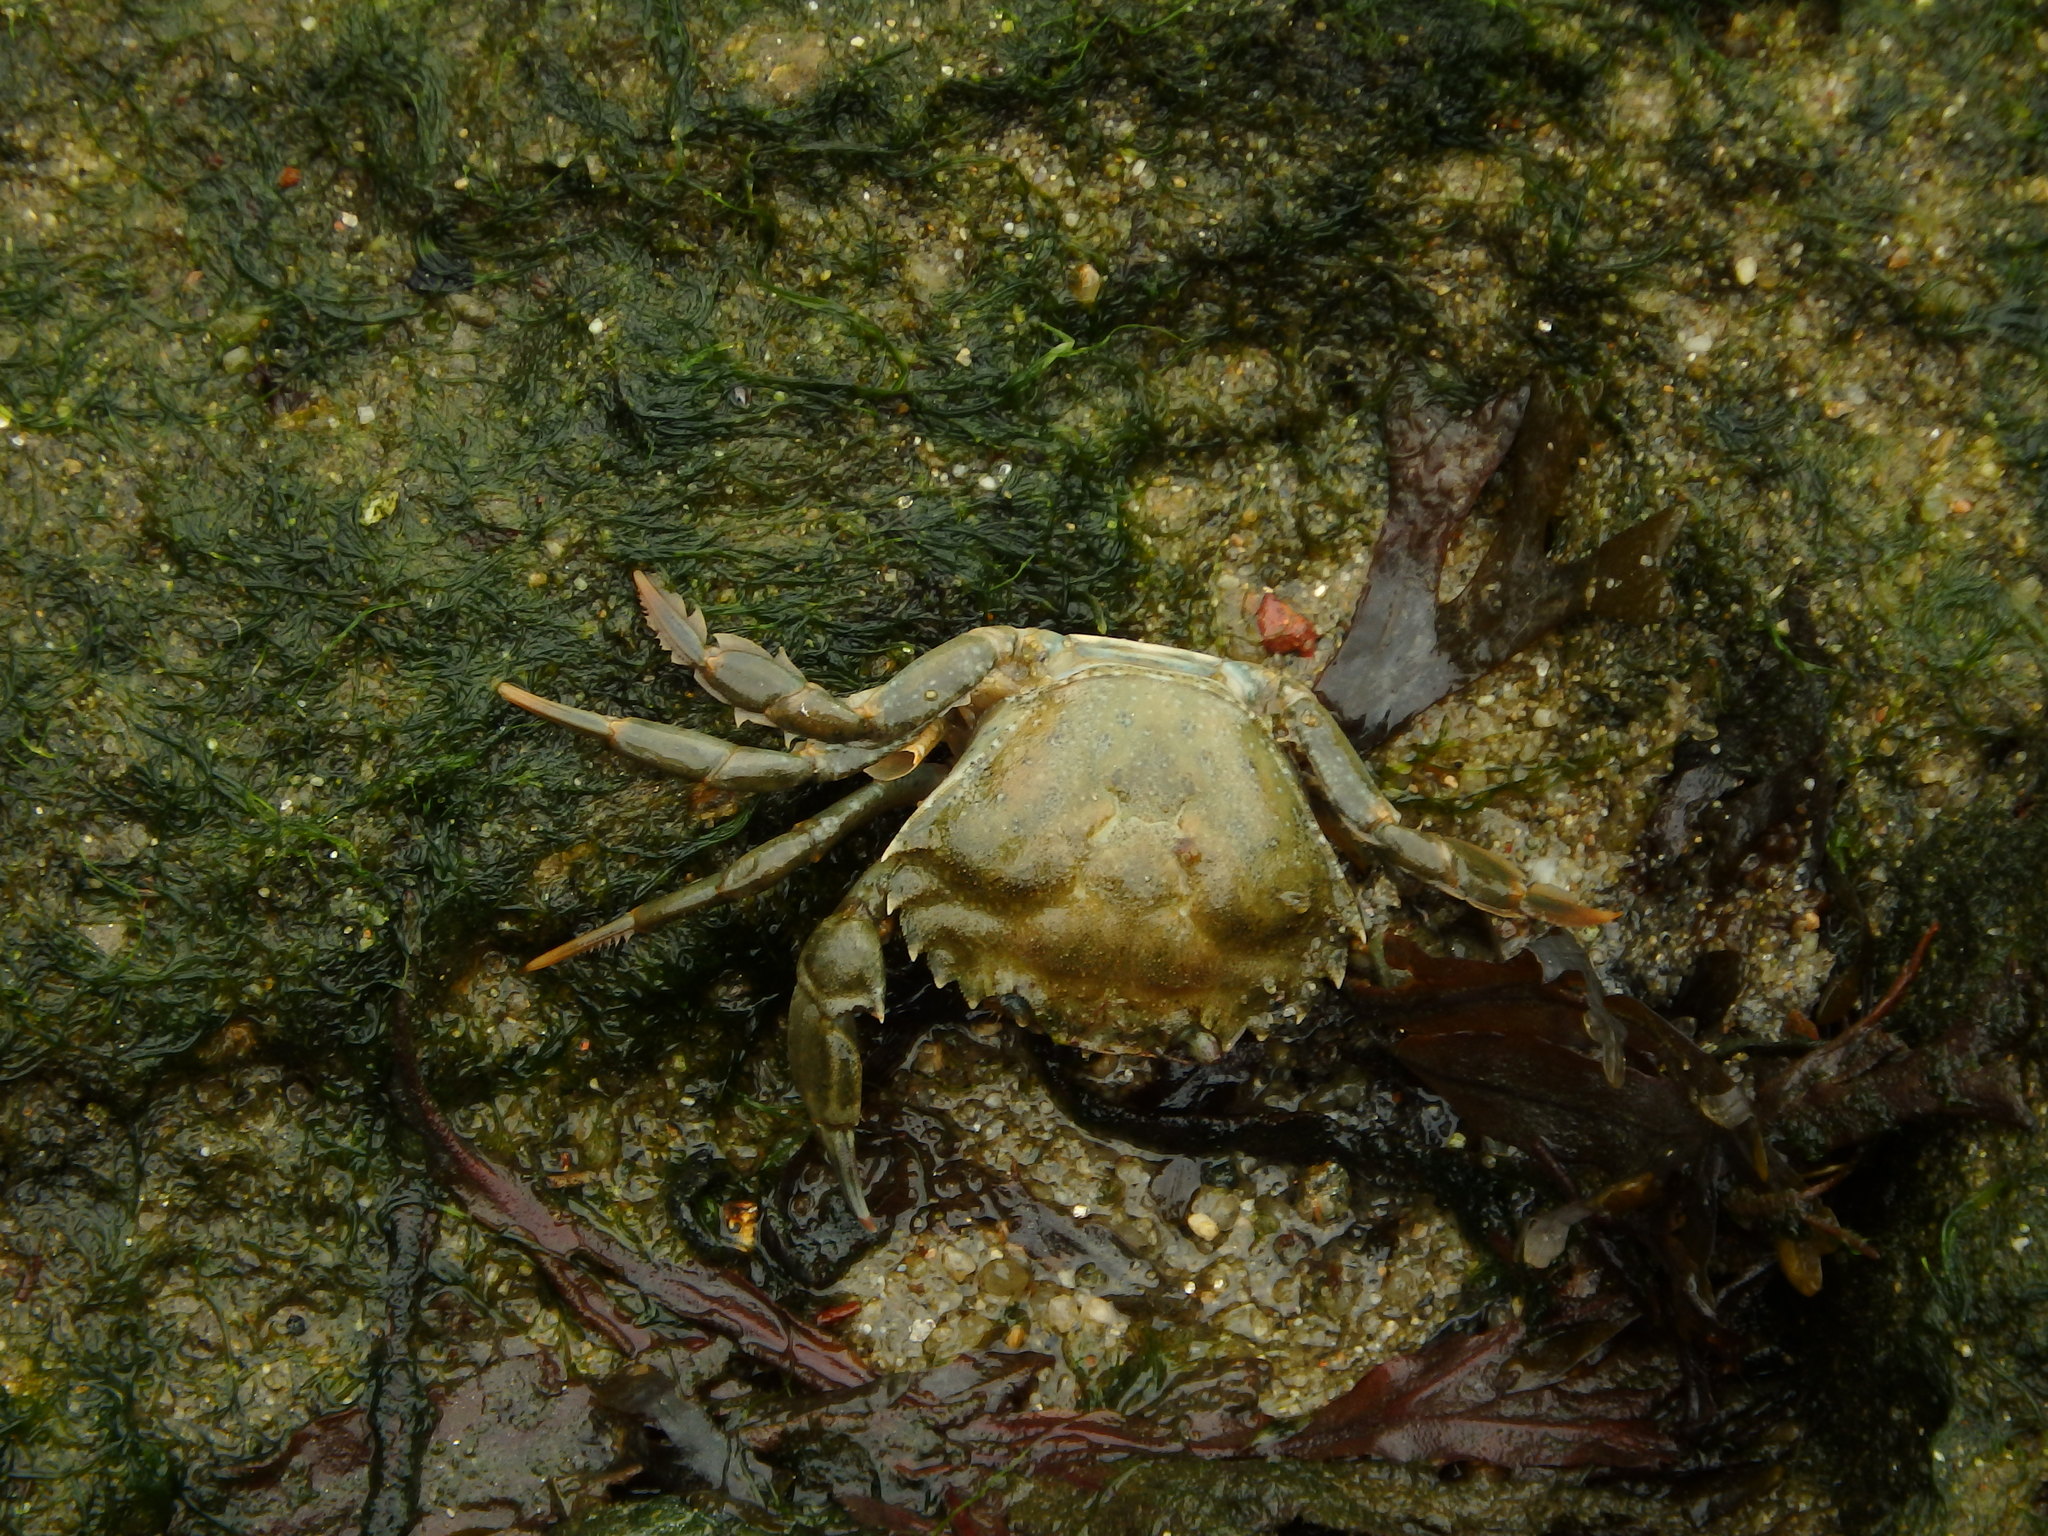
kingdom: Animalia
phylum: Arthropoda
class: Malacostraca
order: Decapoda
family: Carcinidae
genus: Carcinus
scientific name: Carcinus maenas
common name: European green crab
